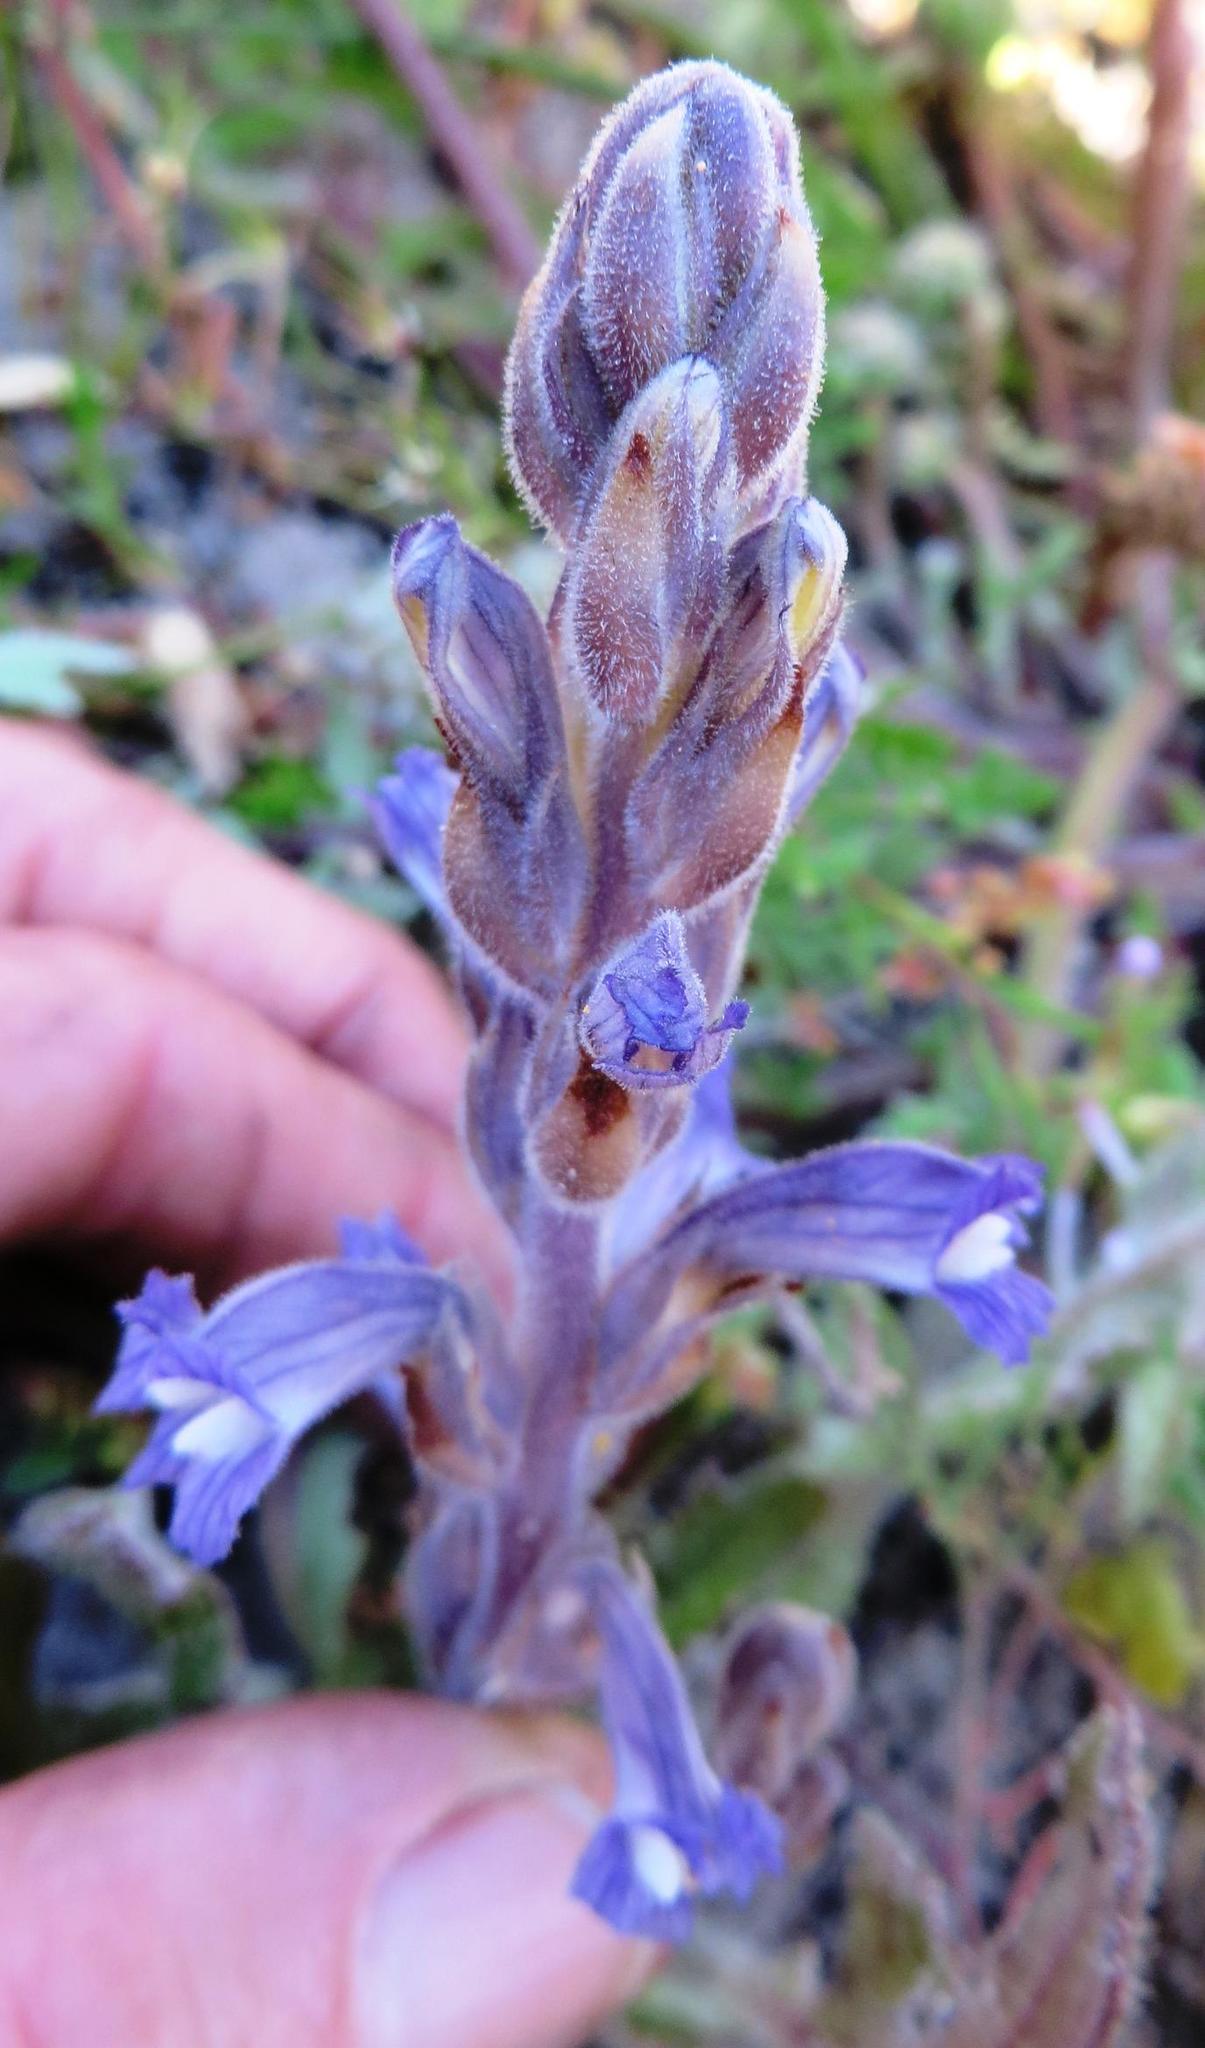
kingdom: Plantae
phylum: Tracheophyta
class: Magnoliopsida
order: Lamiales
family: Orobanchaceae
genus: Phelipanche
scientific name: Phelipanche mutelii
